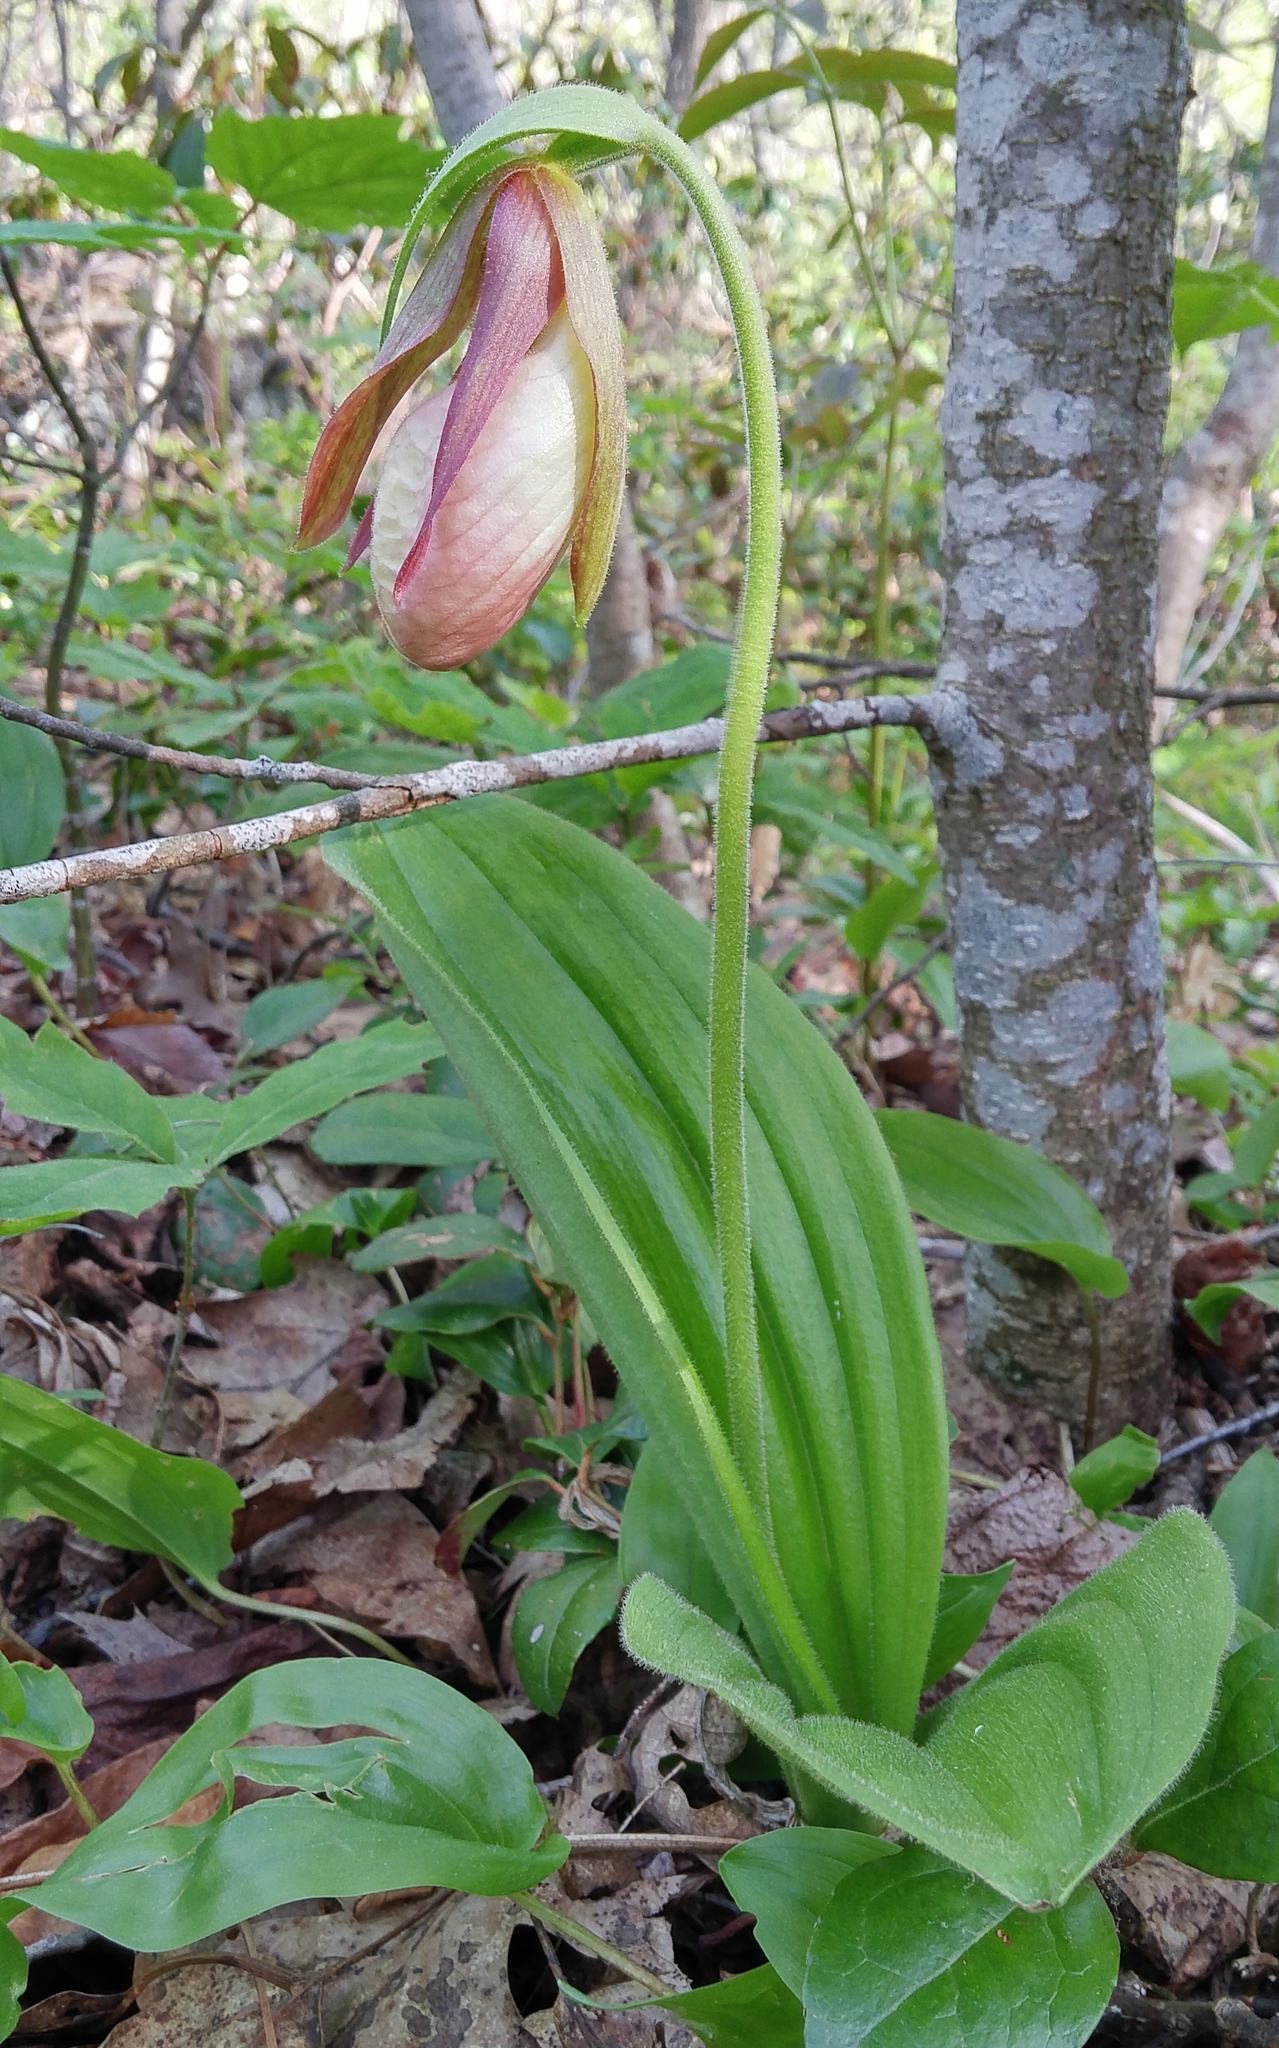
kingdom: Plantae
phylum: Tracheophyta
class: Liliopsida
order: Asparagales
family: Orchidaceae
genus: Cypripedium
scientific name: Cypripedium acaule
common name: Pink lady's-slipper
